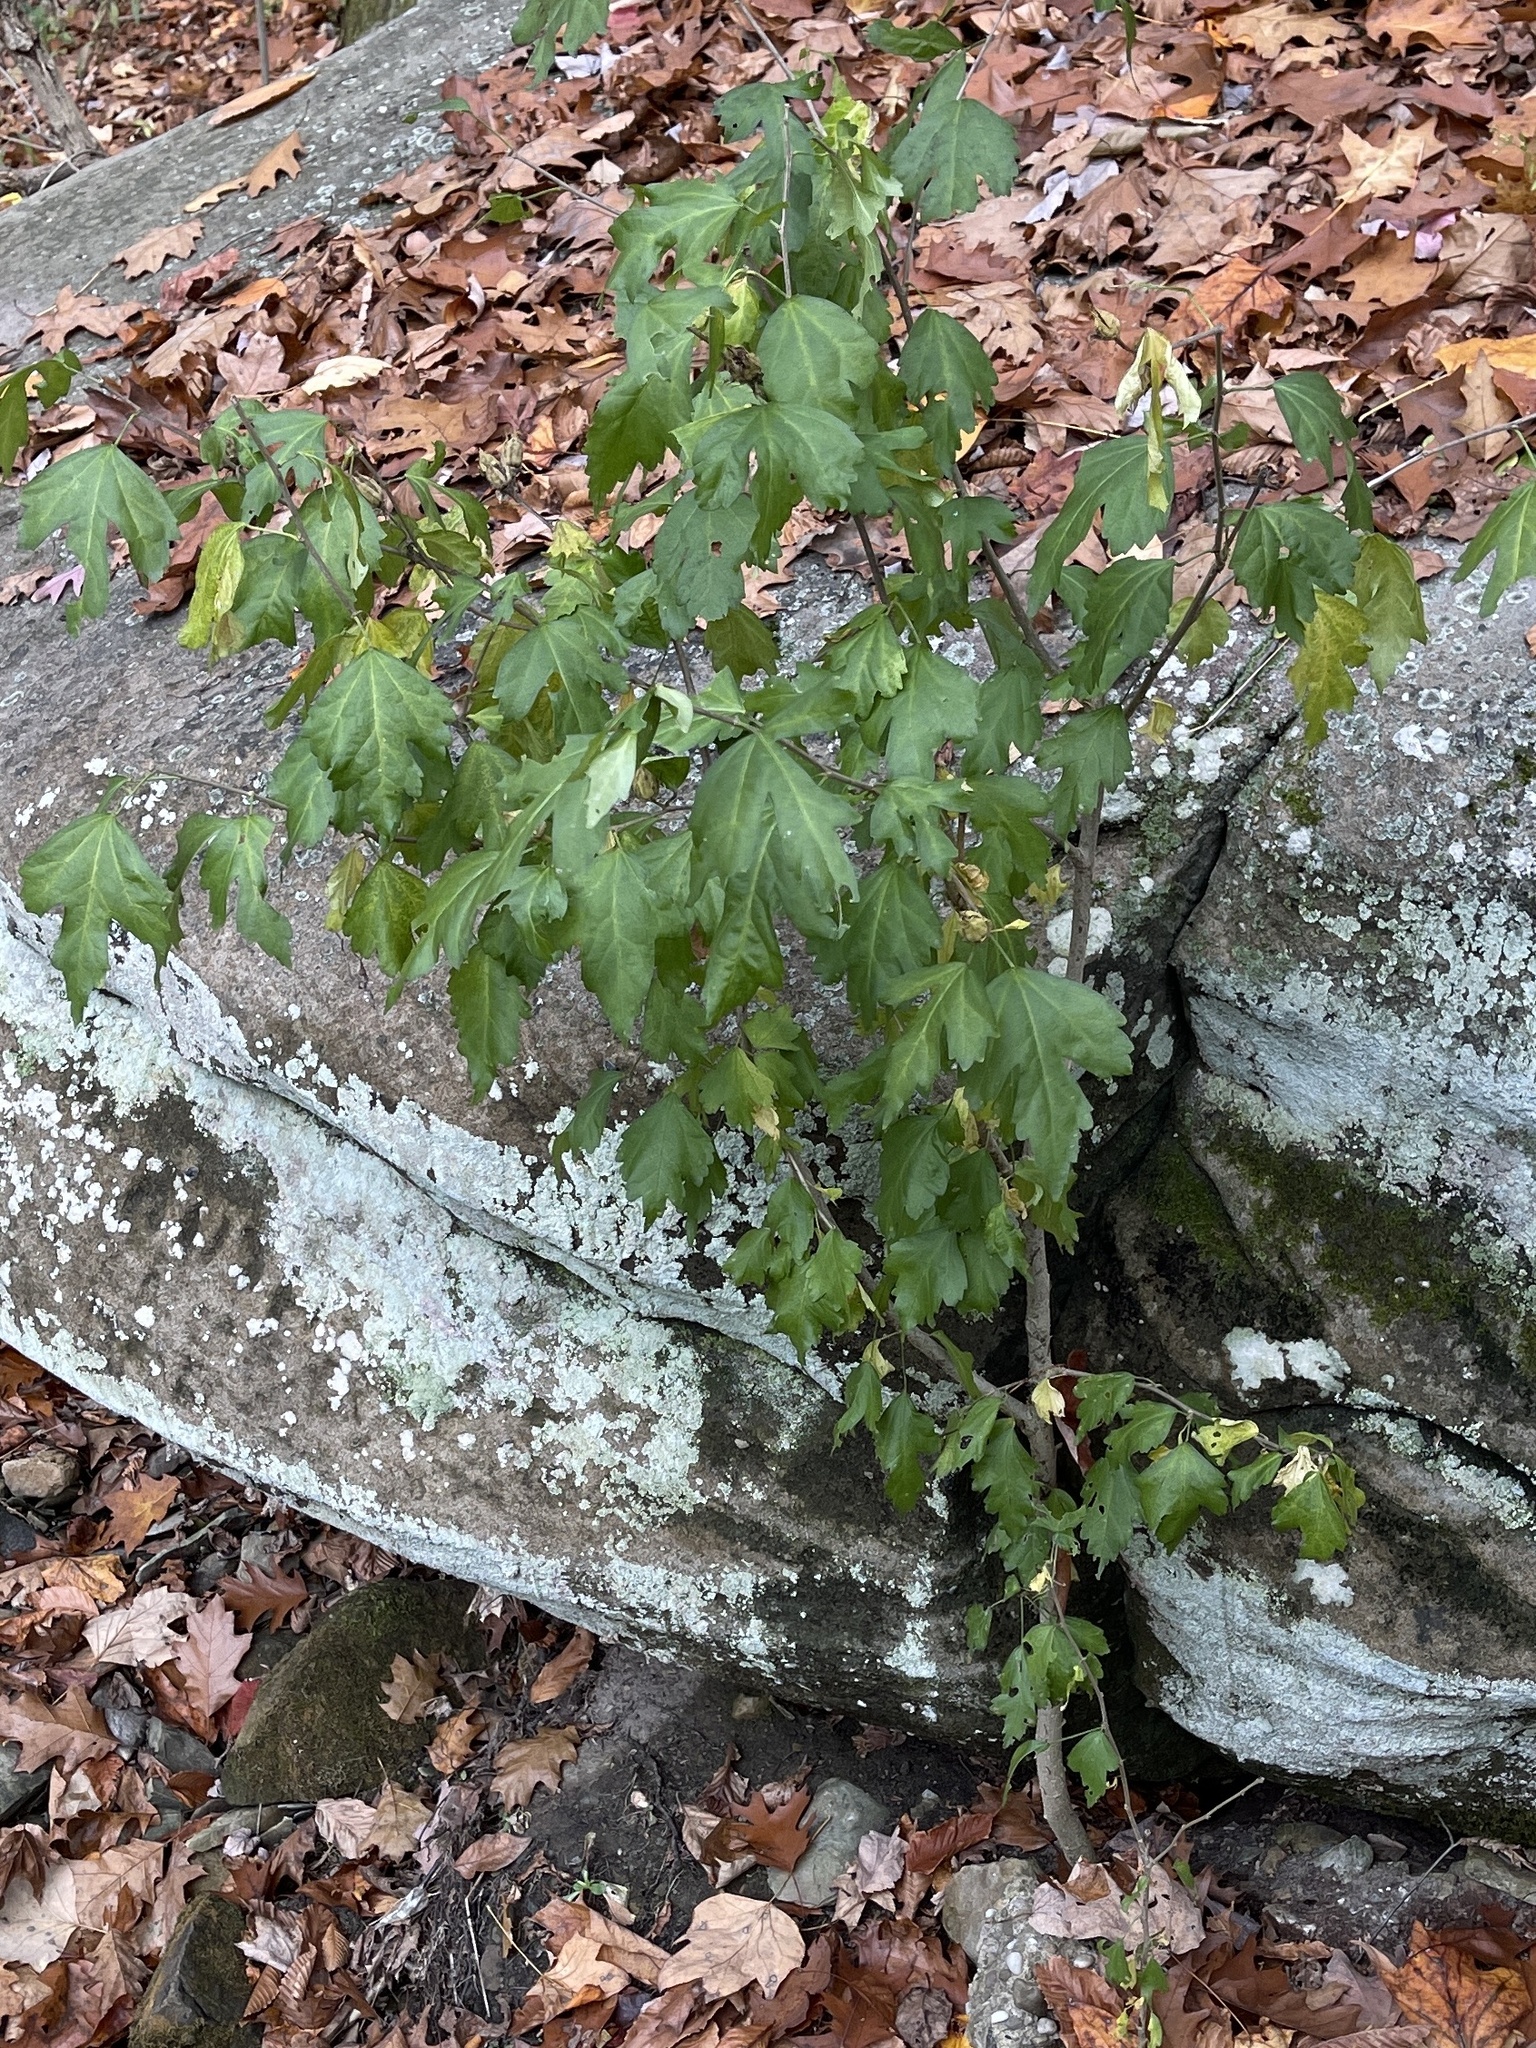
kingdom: Plantae
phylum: Tracheophyta
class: Magnoliopsida
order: Malvales
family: Malvaceae
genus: Hibiscus
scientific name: Hibiscus syriacus
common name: Syrian ketmia
